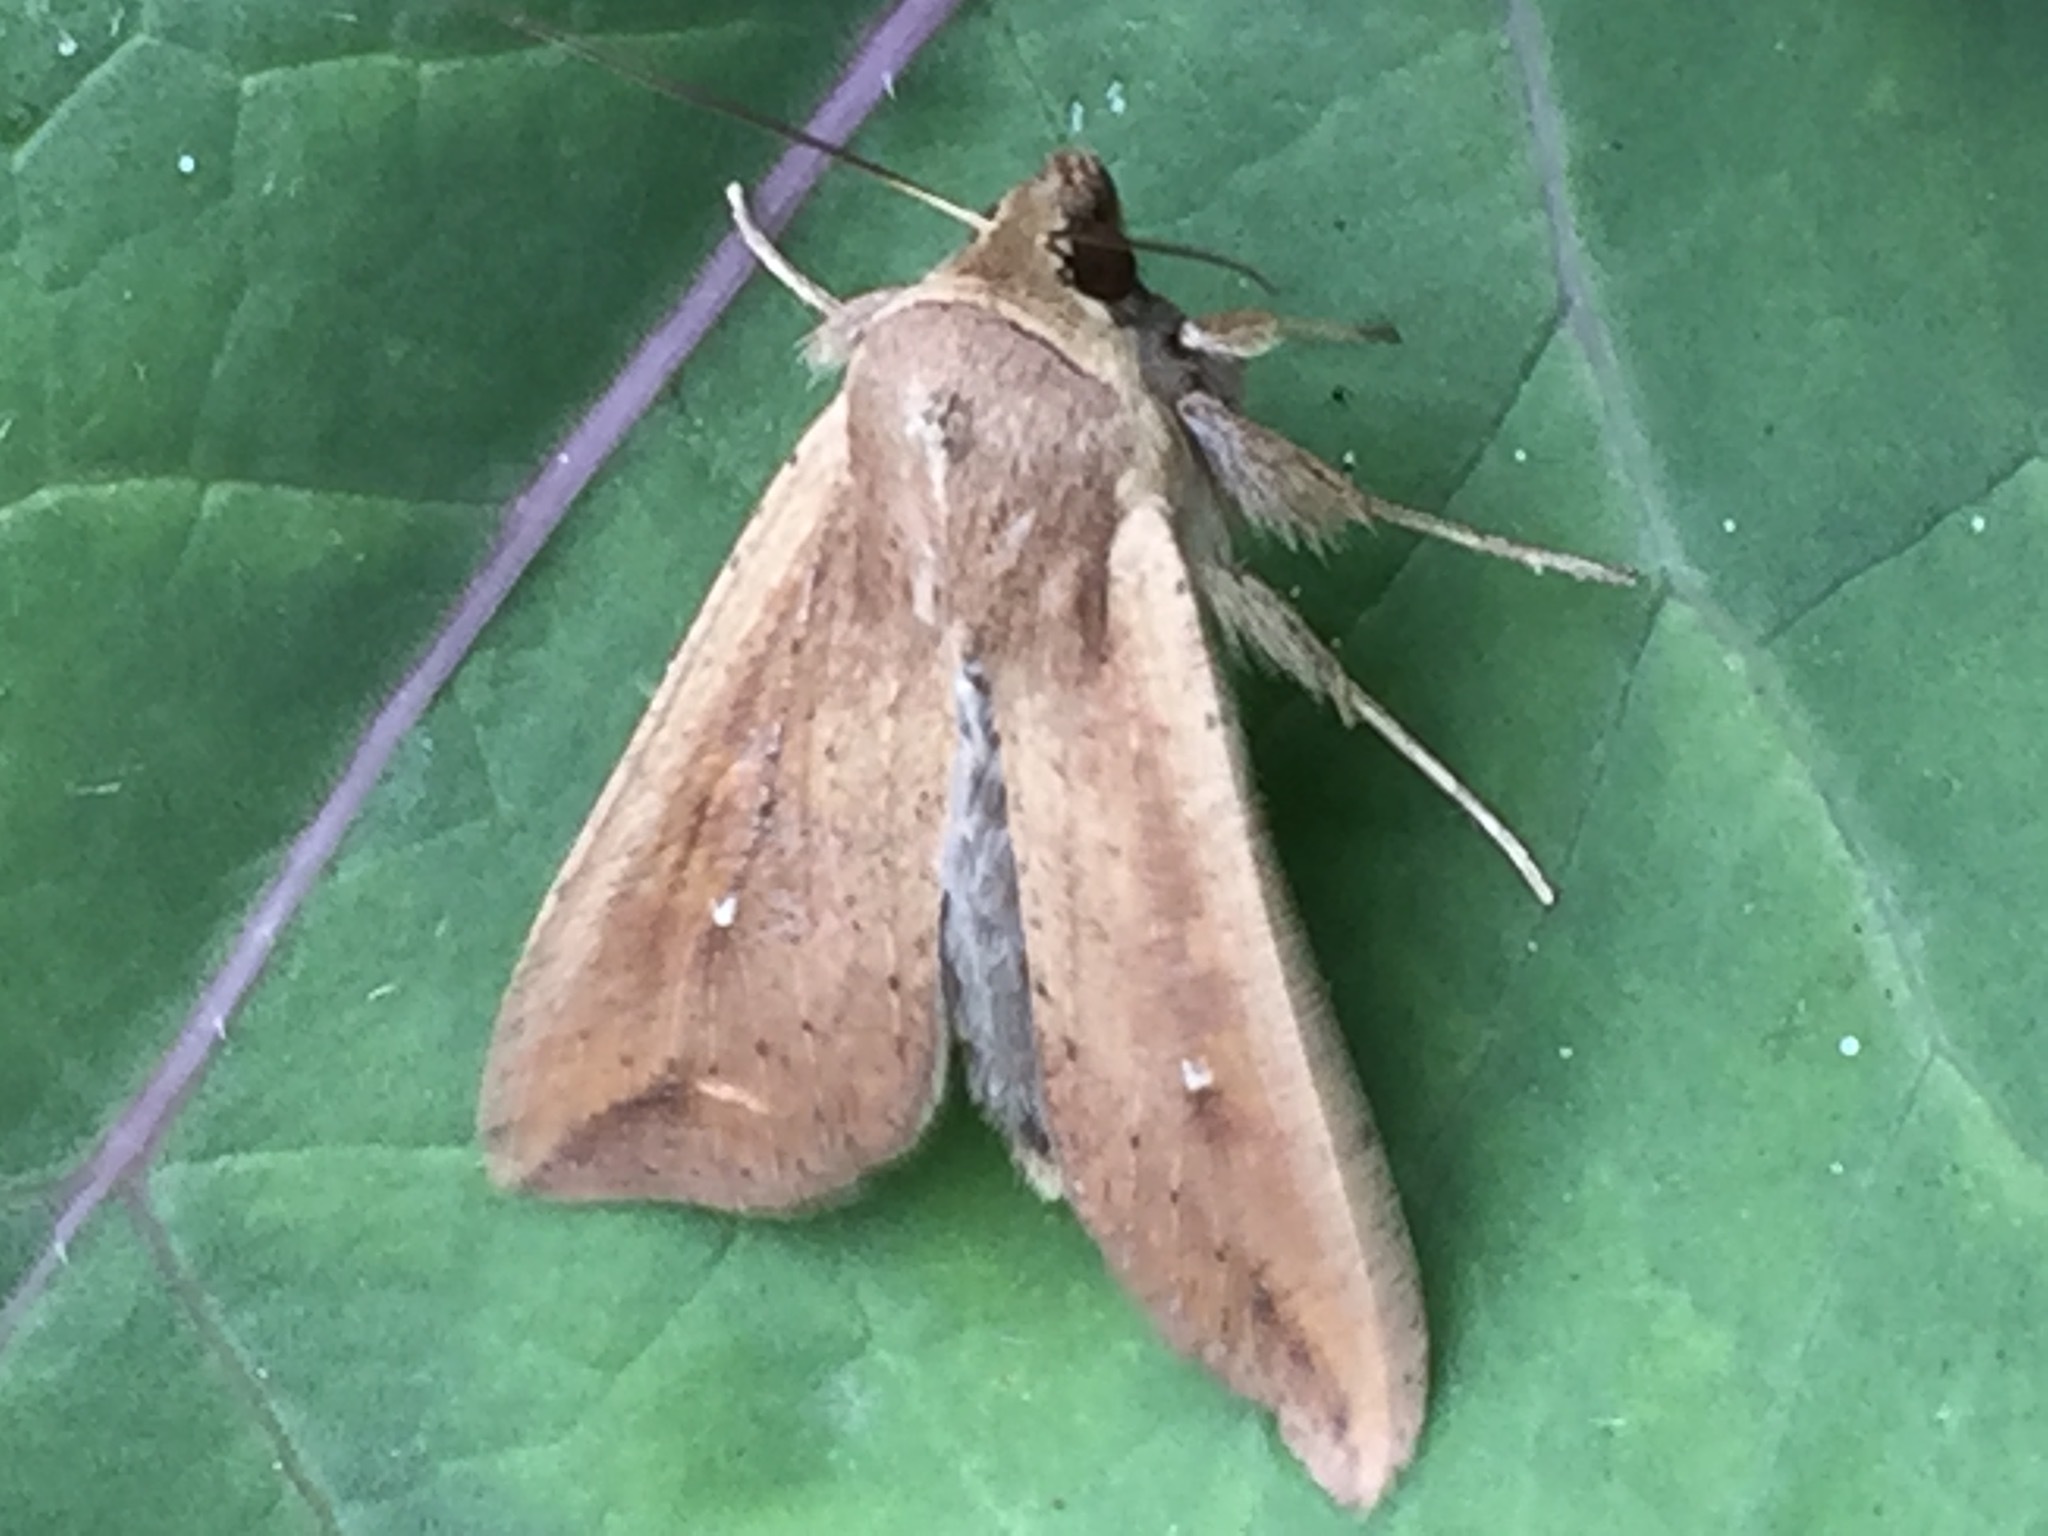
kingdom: Animalia
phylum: Arthropoda
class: Insecta
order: Lepidoptera
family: Noctuidae
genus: Mythimna
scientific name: Mythimna unipuncta
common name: White-speck
